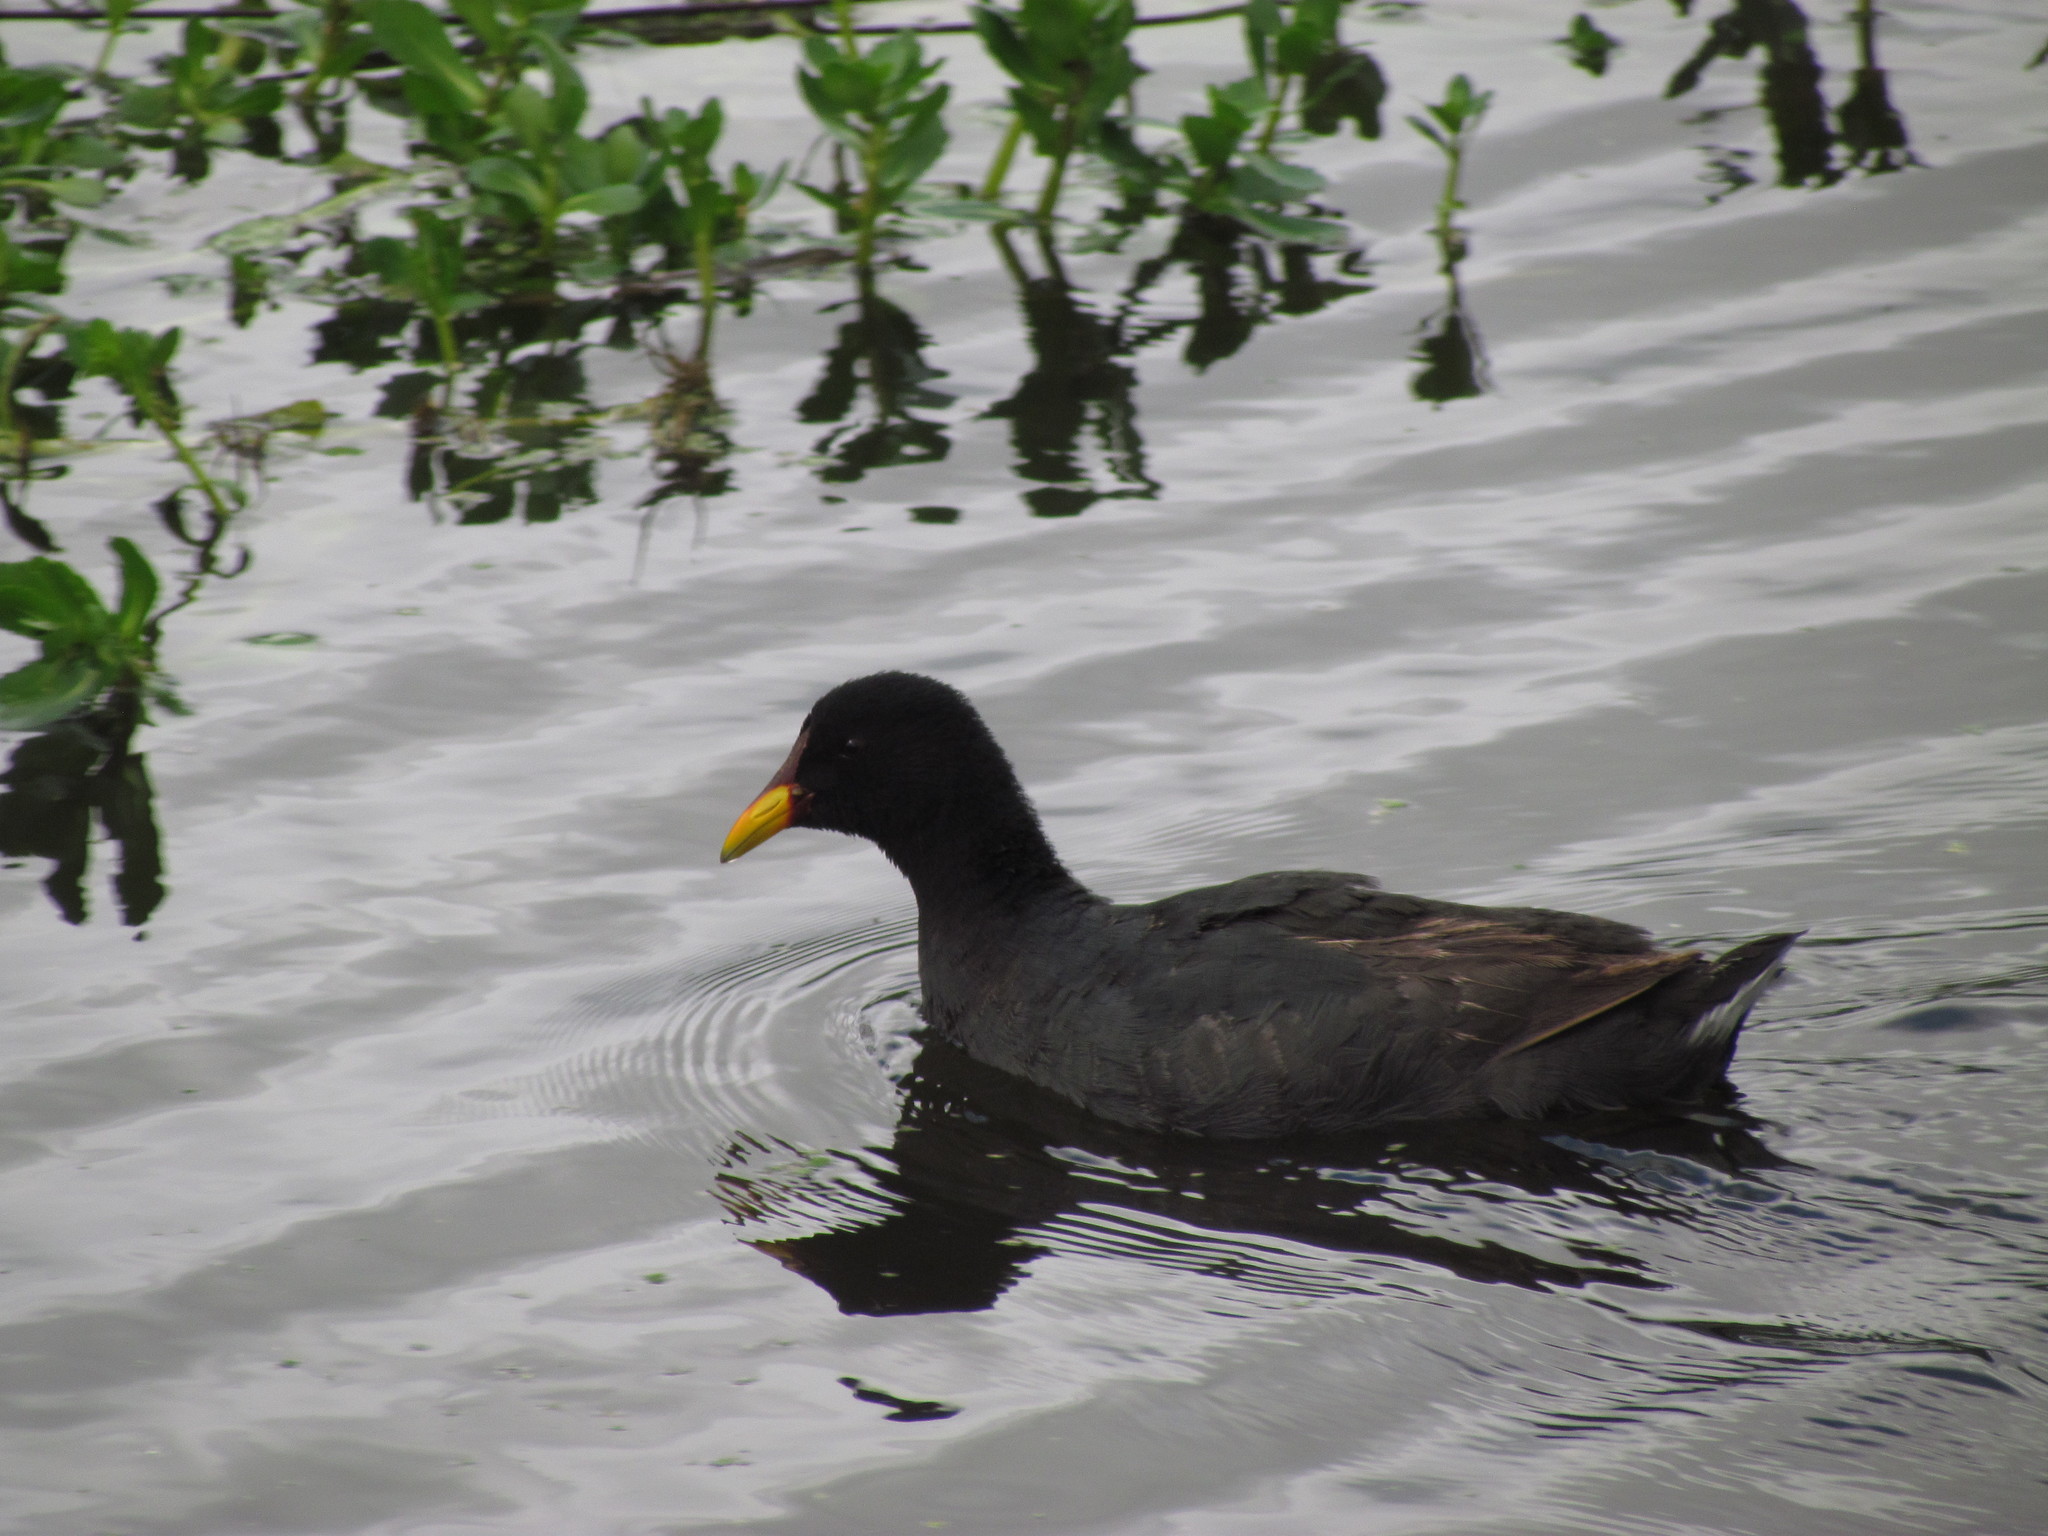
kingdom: Animalia
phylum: Chordata
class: Aves
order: Gruiformes
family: Rallidae
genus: Fulica
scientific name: Fulica rufifrons
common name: Red-fronted coot
